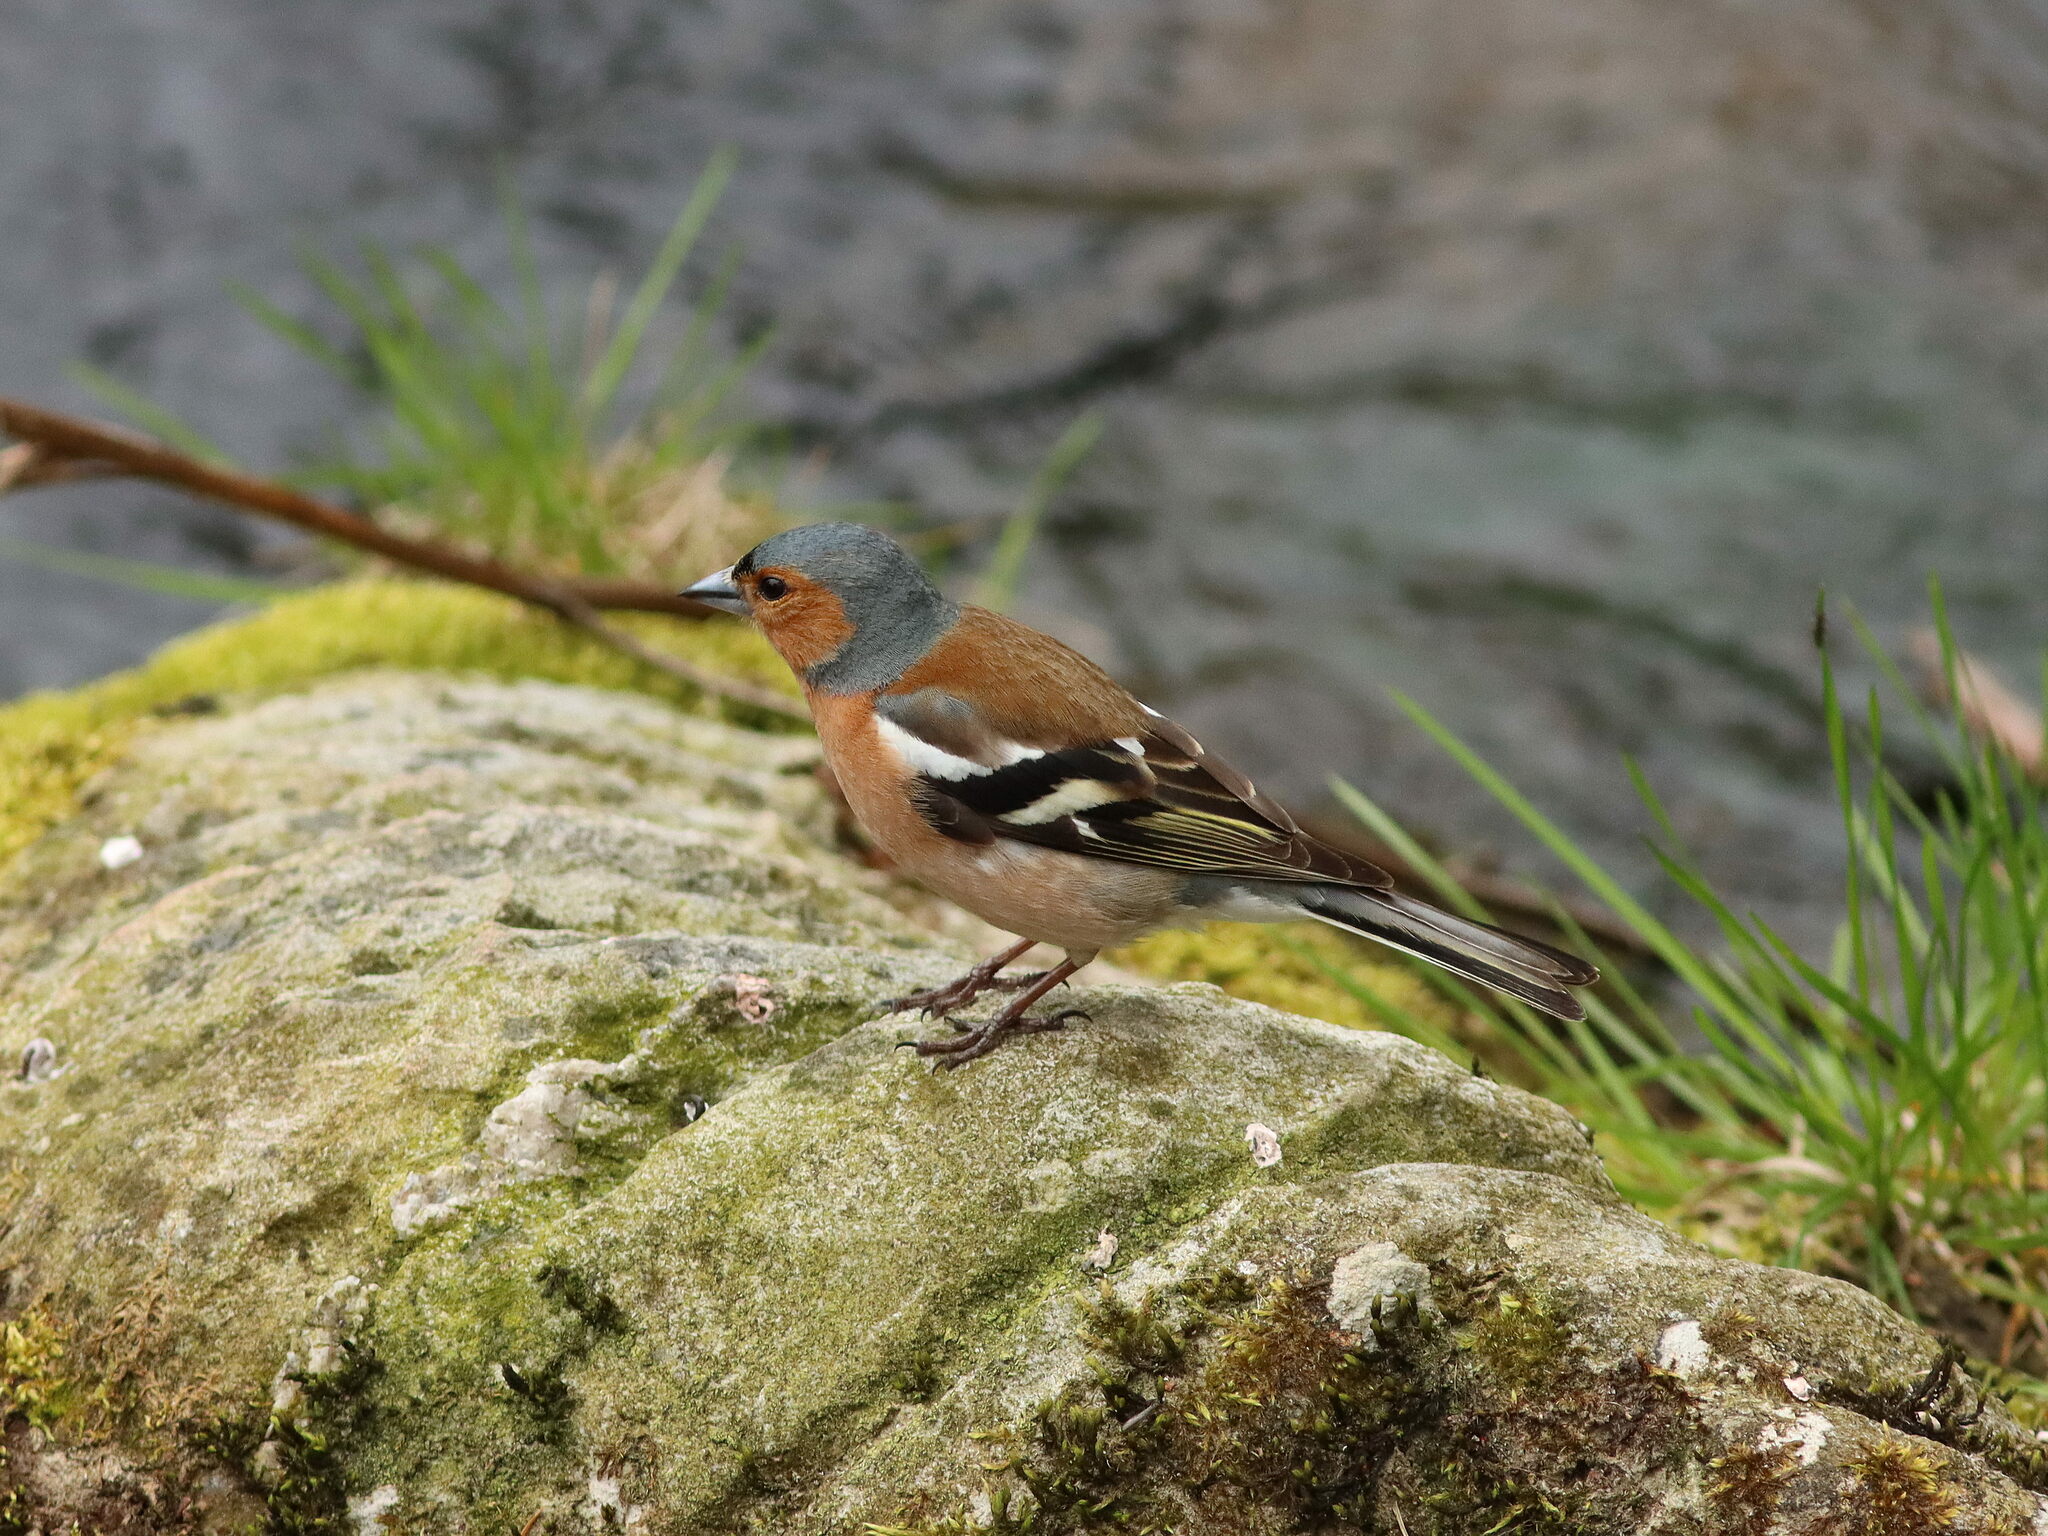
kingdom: Animalia
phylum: Chordata
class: Aves
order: Passeriformes
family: Fringillidae
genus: Fringilla
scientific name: Fringilla coelebs
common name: Common chaffinch
